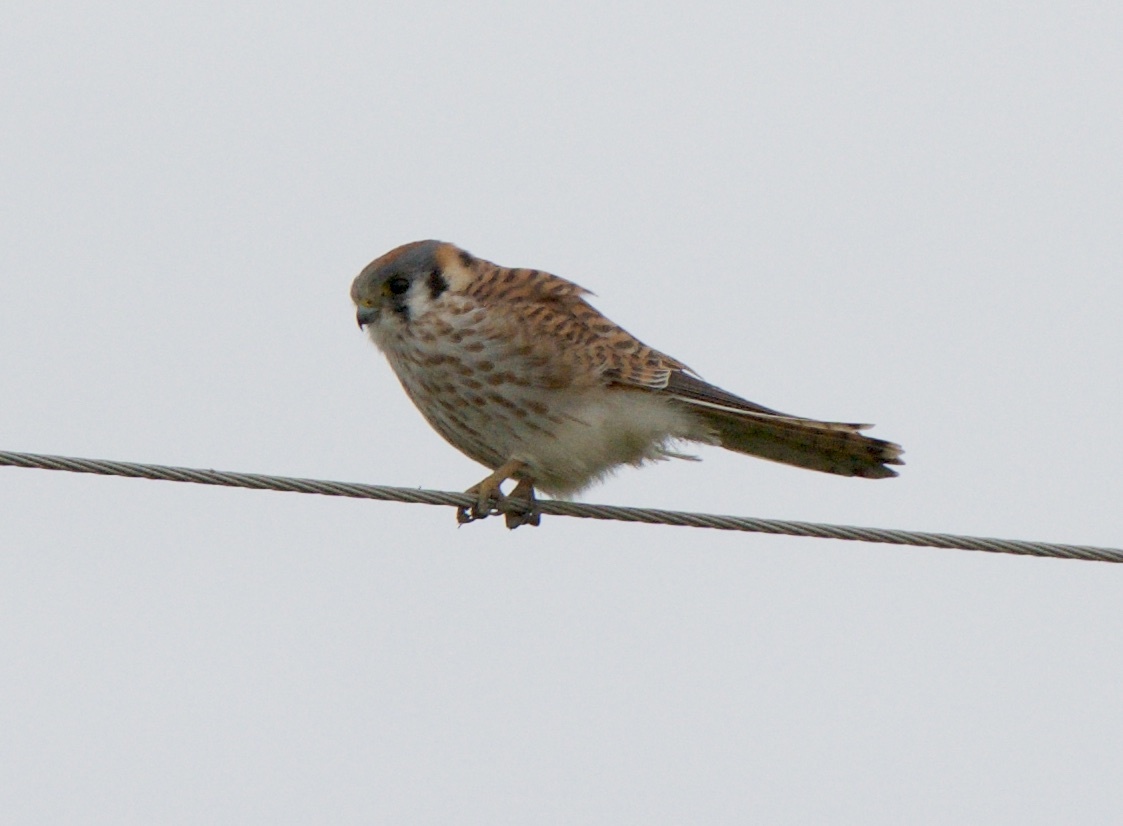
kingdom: Animalia
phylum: Chordata
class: Aves
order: Falconiformes
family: Falconidae
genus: Falco
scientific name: Falco sparverius
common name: American kestrel
